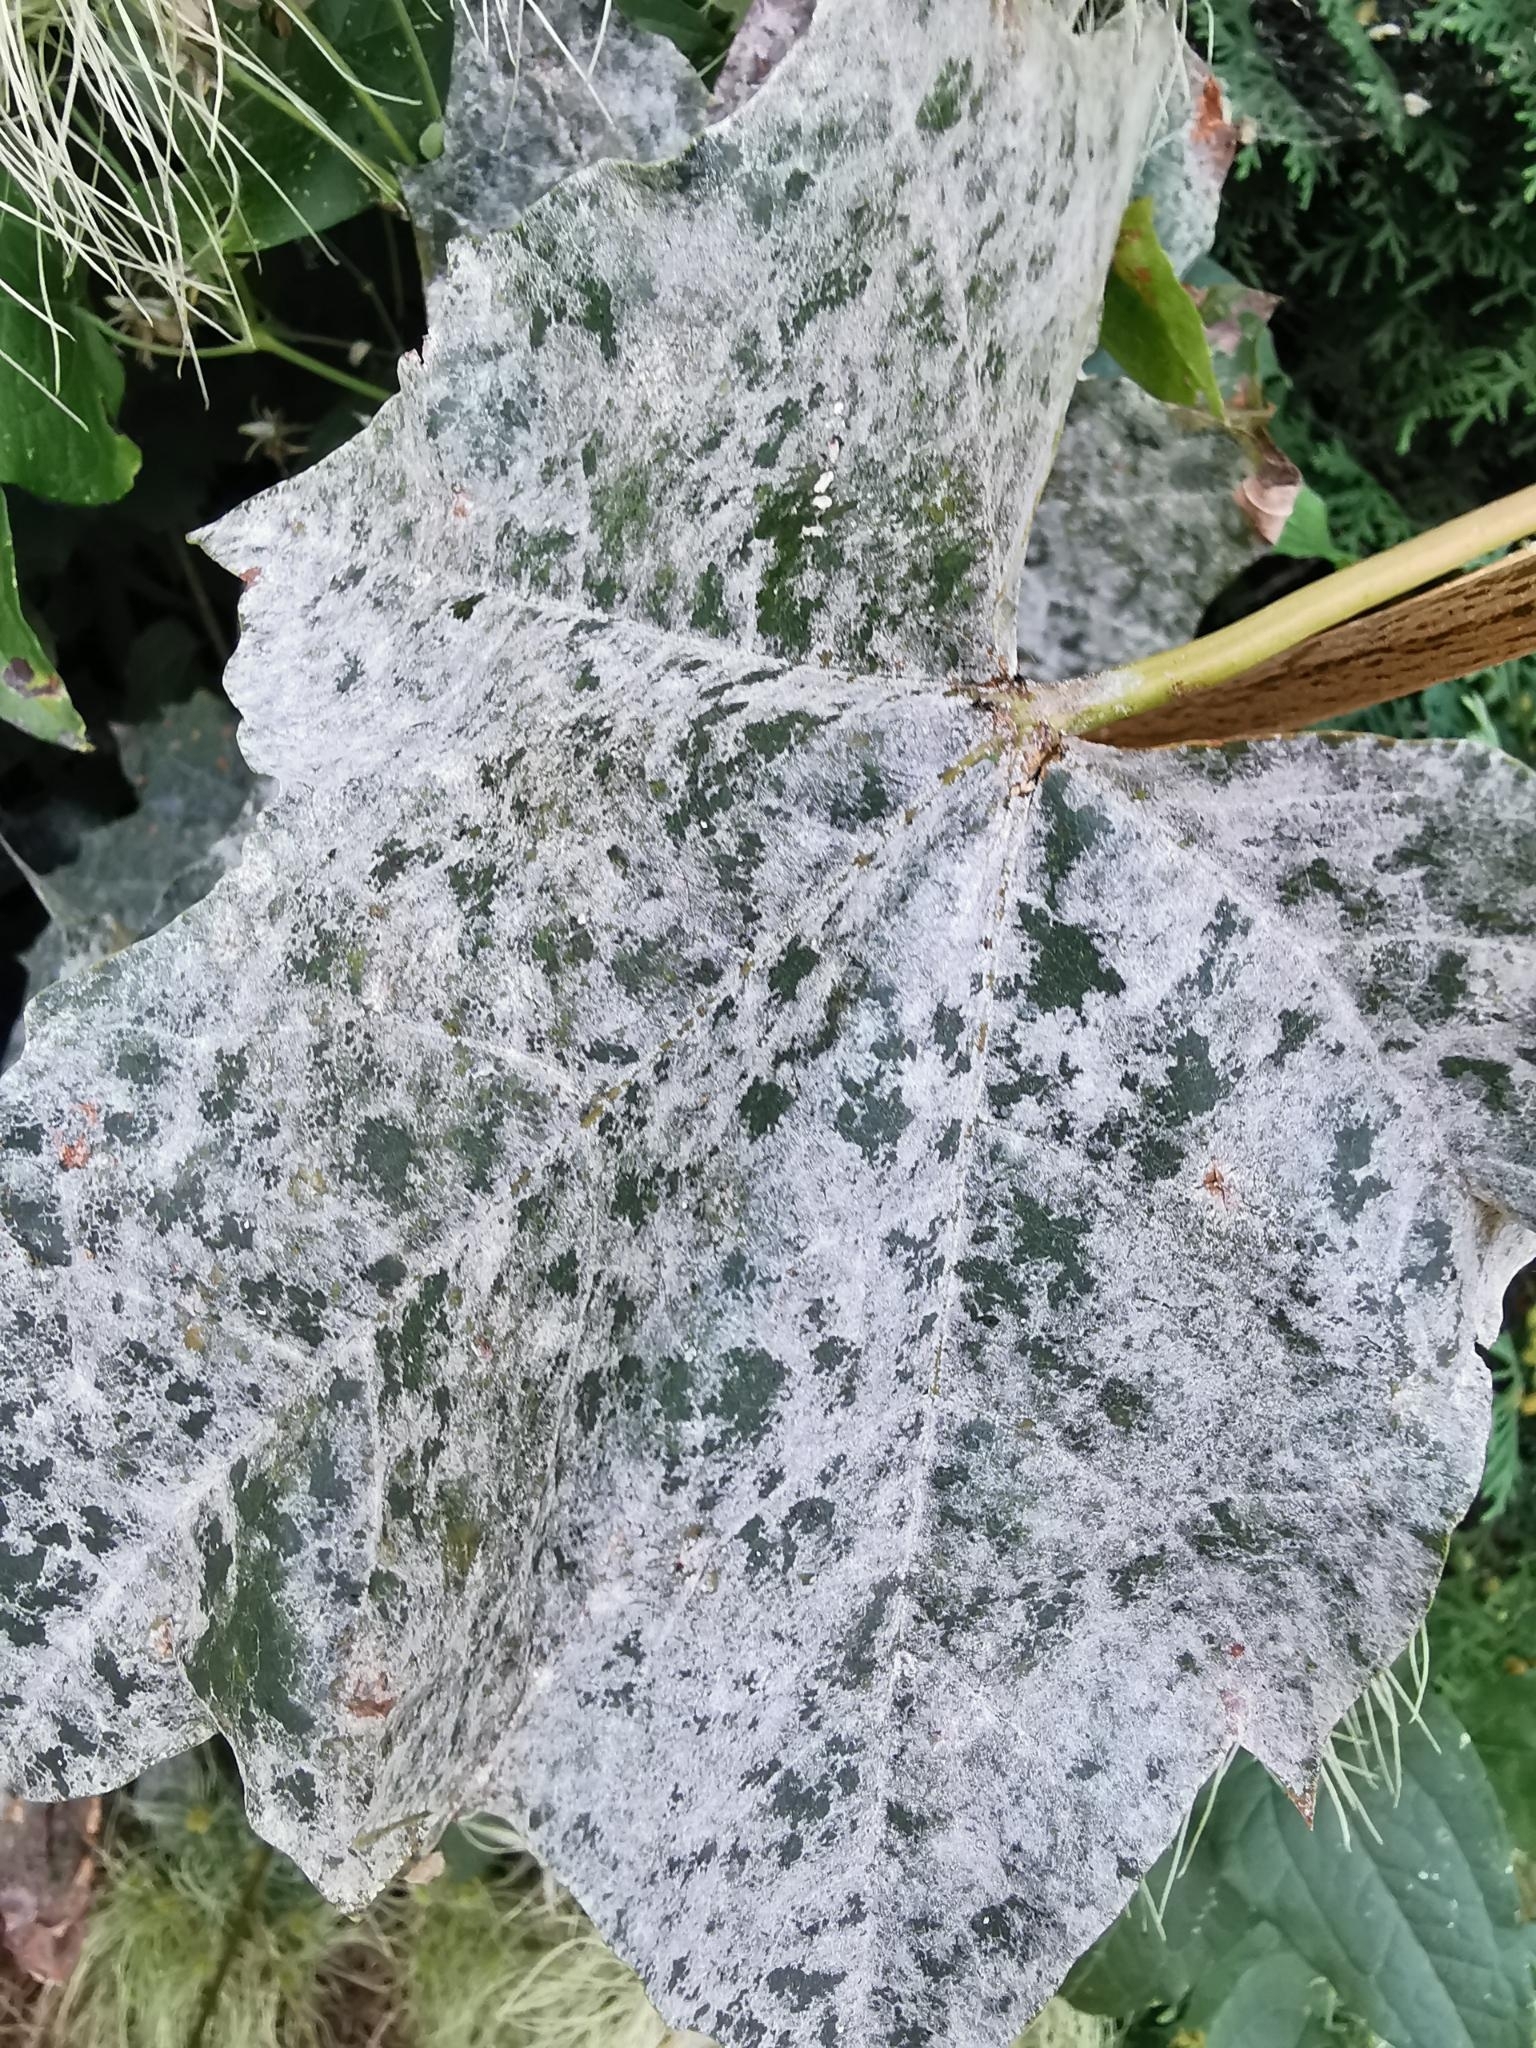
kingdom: Fungi
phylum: Ascomycota
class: Leotiomycetes
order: Helotiales
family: Erysiphaceae
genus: Sawadaea
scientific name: Sawadaea tulasnei
